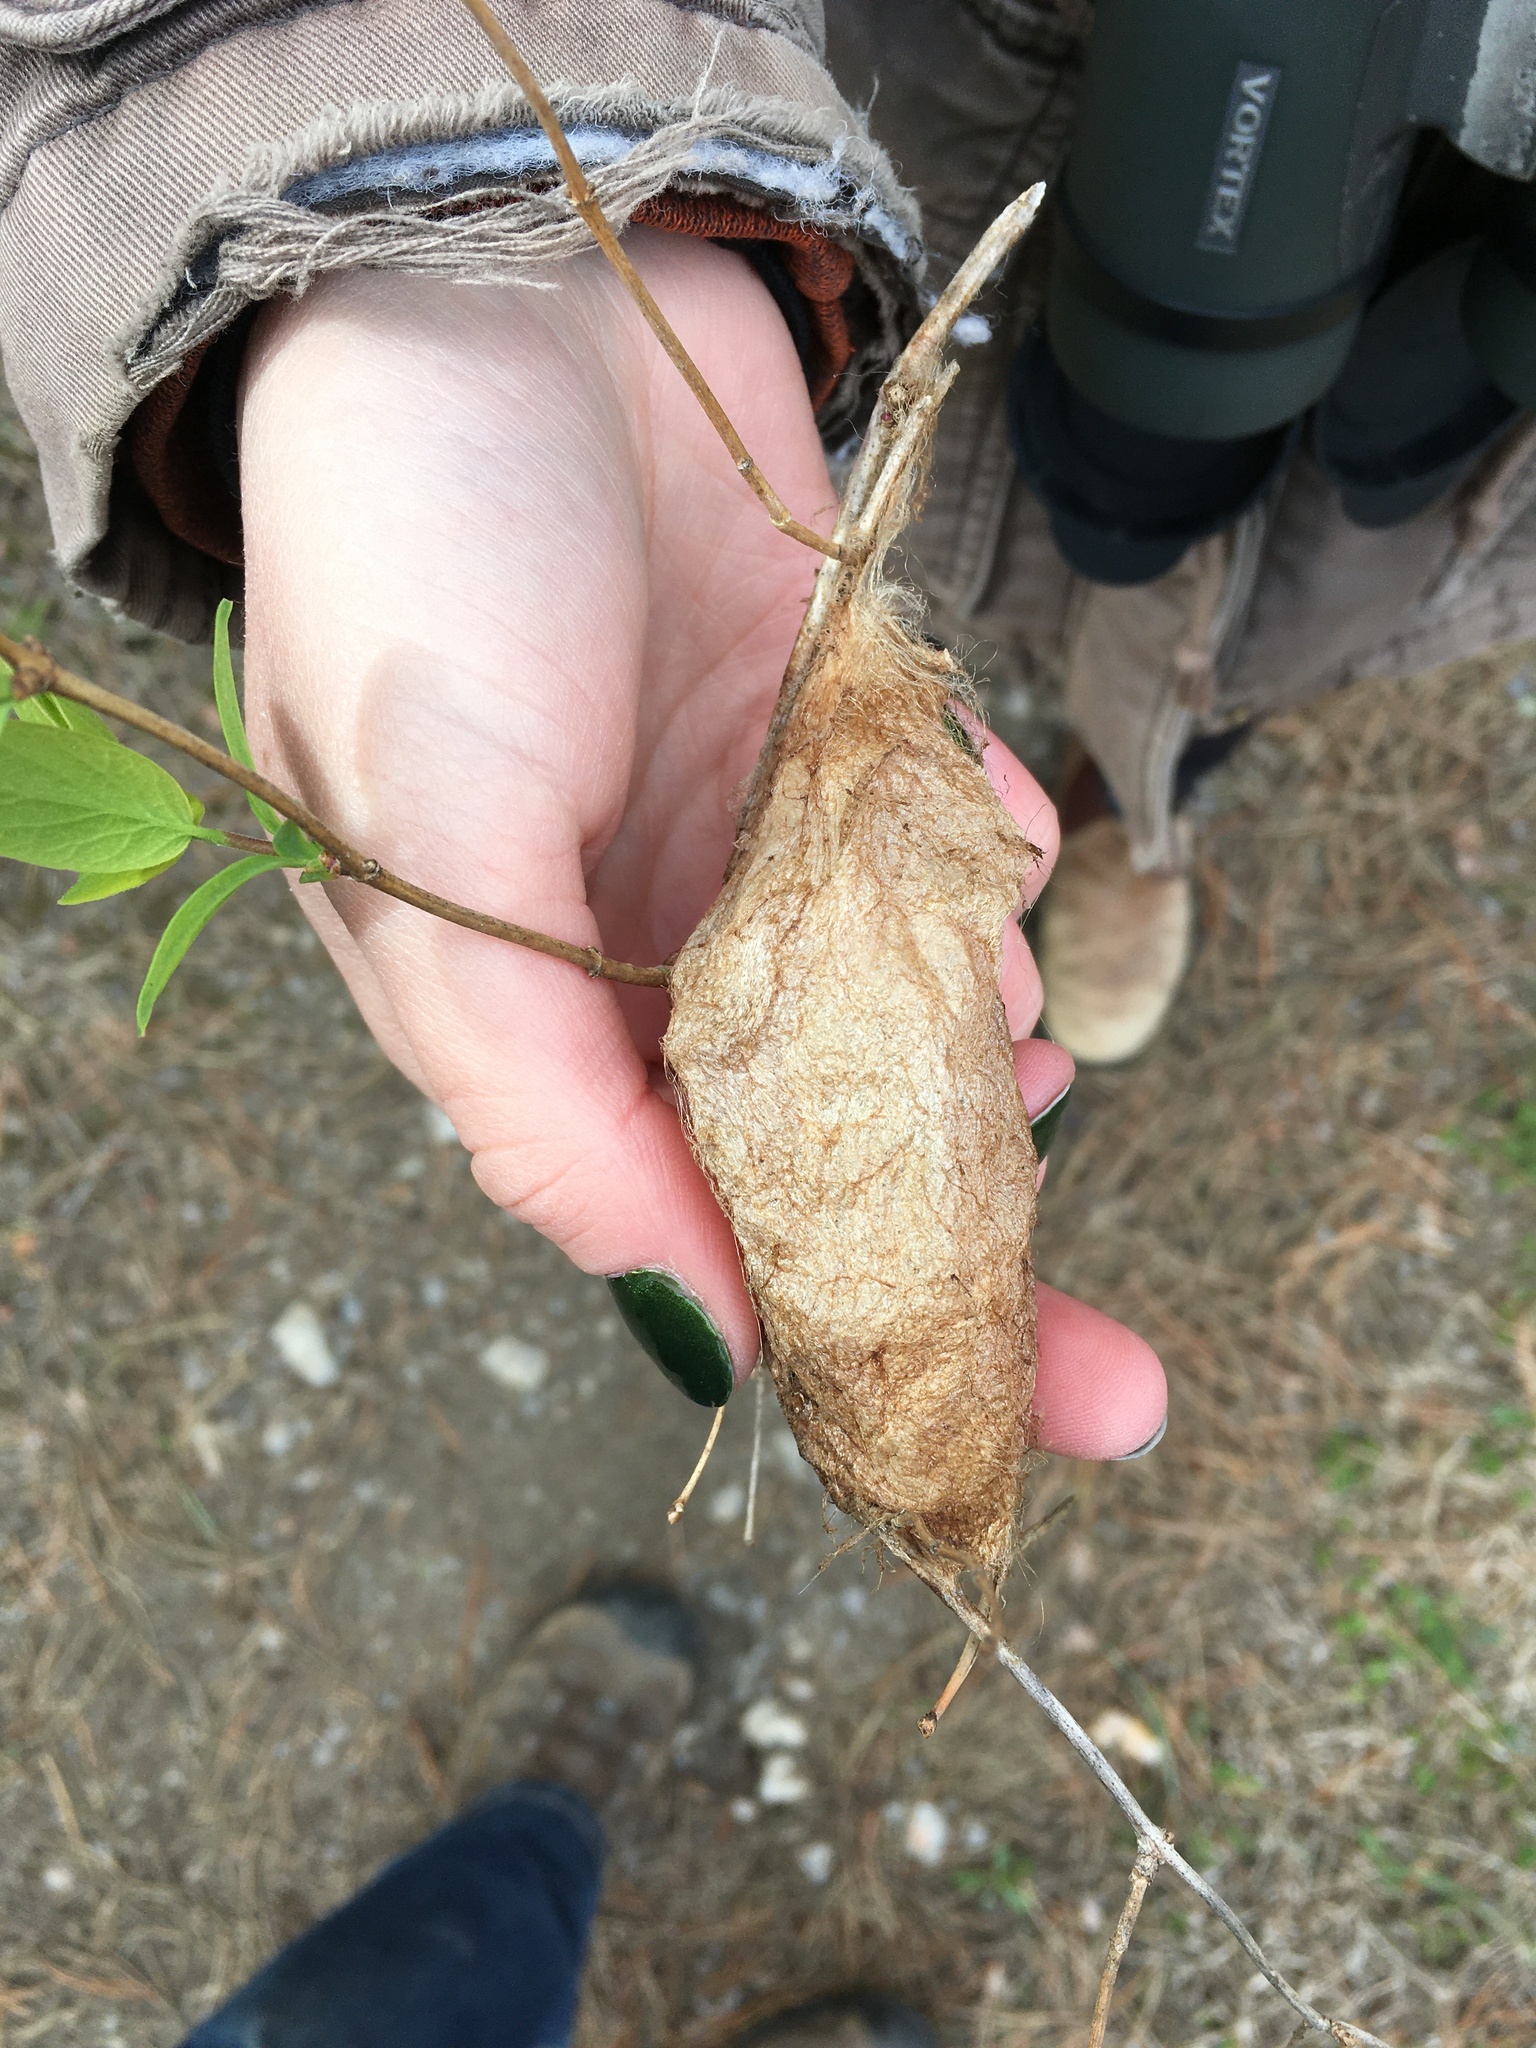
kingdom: Animalia
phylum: Arthropoda
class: Insecta
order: Lepidoptera
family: Saturniidae
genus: Hyalophora
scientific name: Hyalophora cecropia
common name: Cecropia silkmoth
